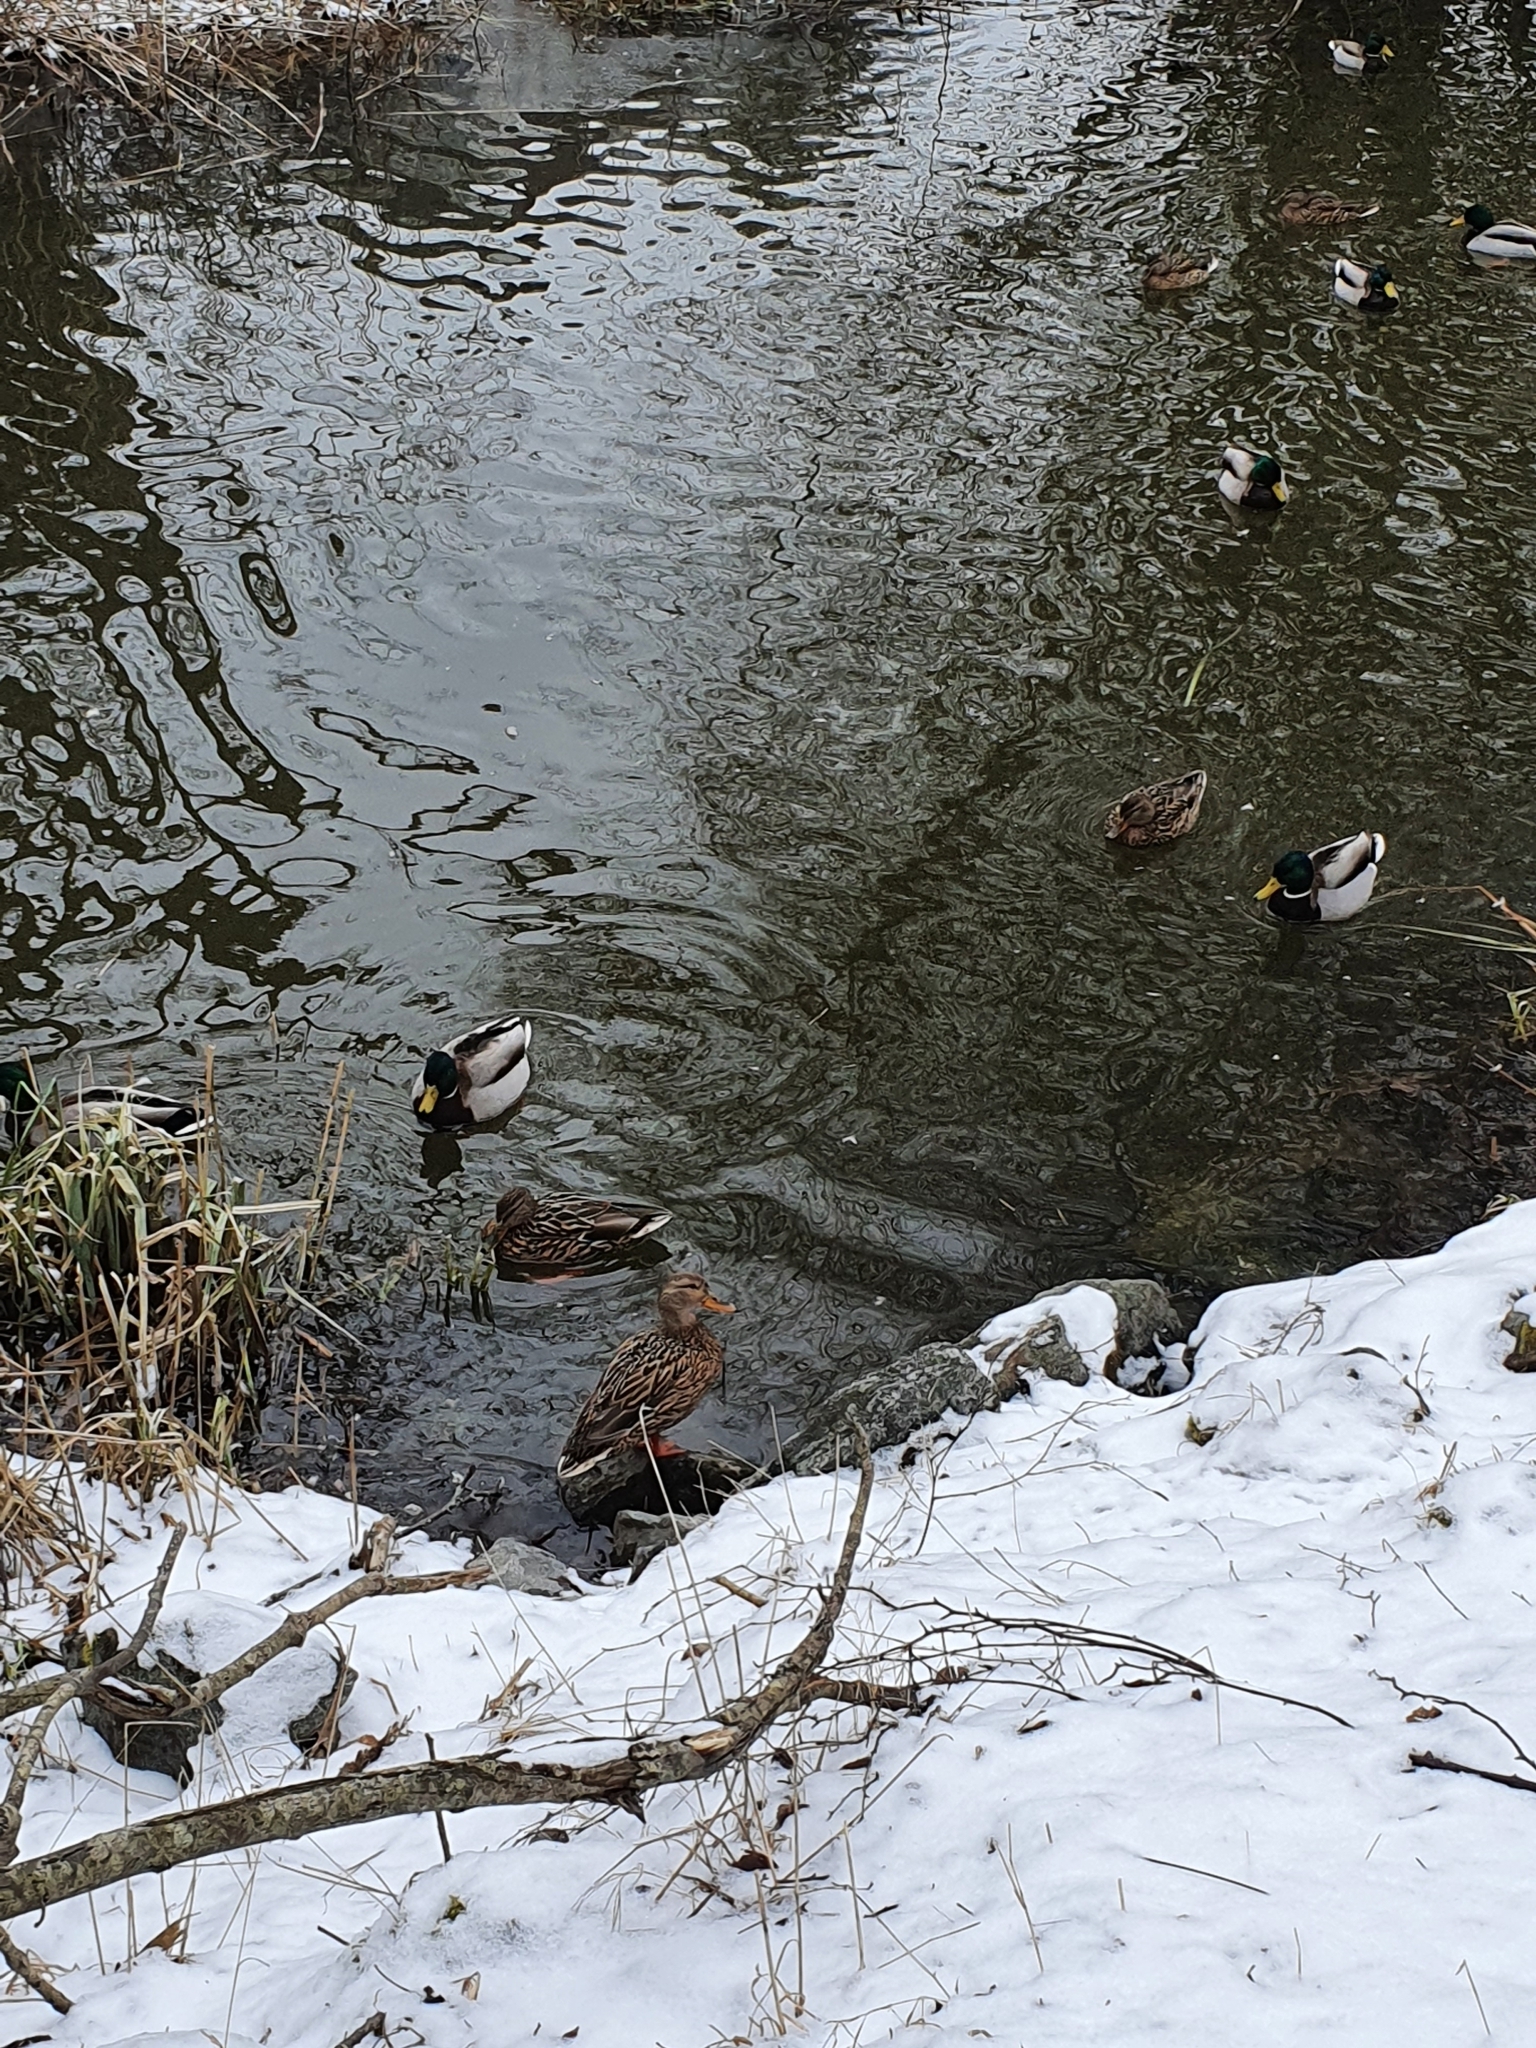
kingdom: Animalia
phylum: Chordata
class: Aves
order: Anseriformes
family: Anatidae
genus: Anas
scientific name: Anas platyrhynchos
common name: Mallard
